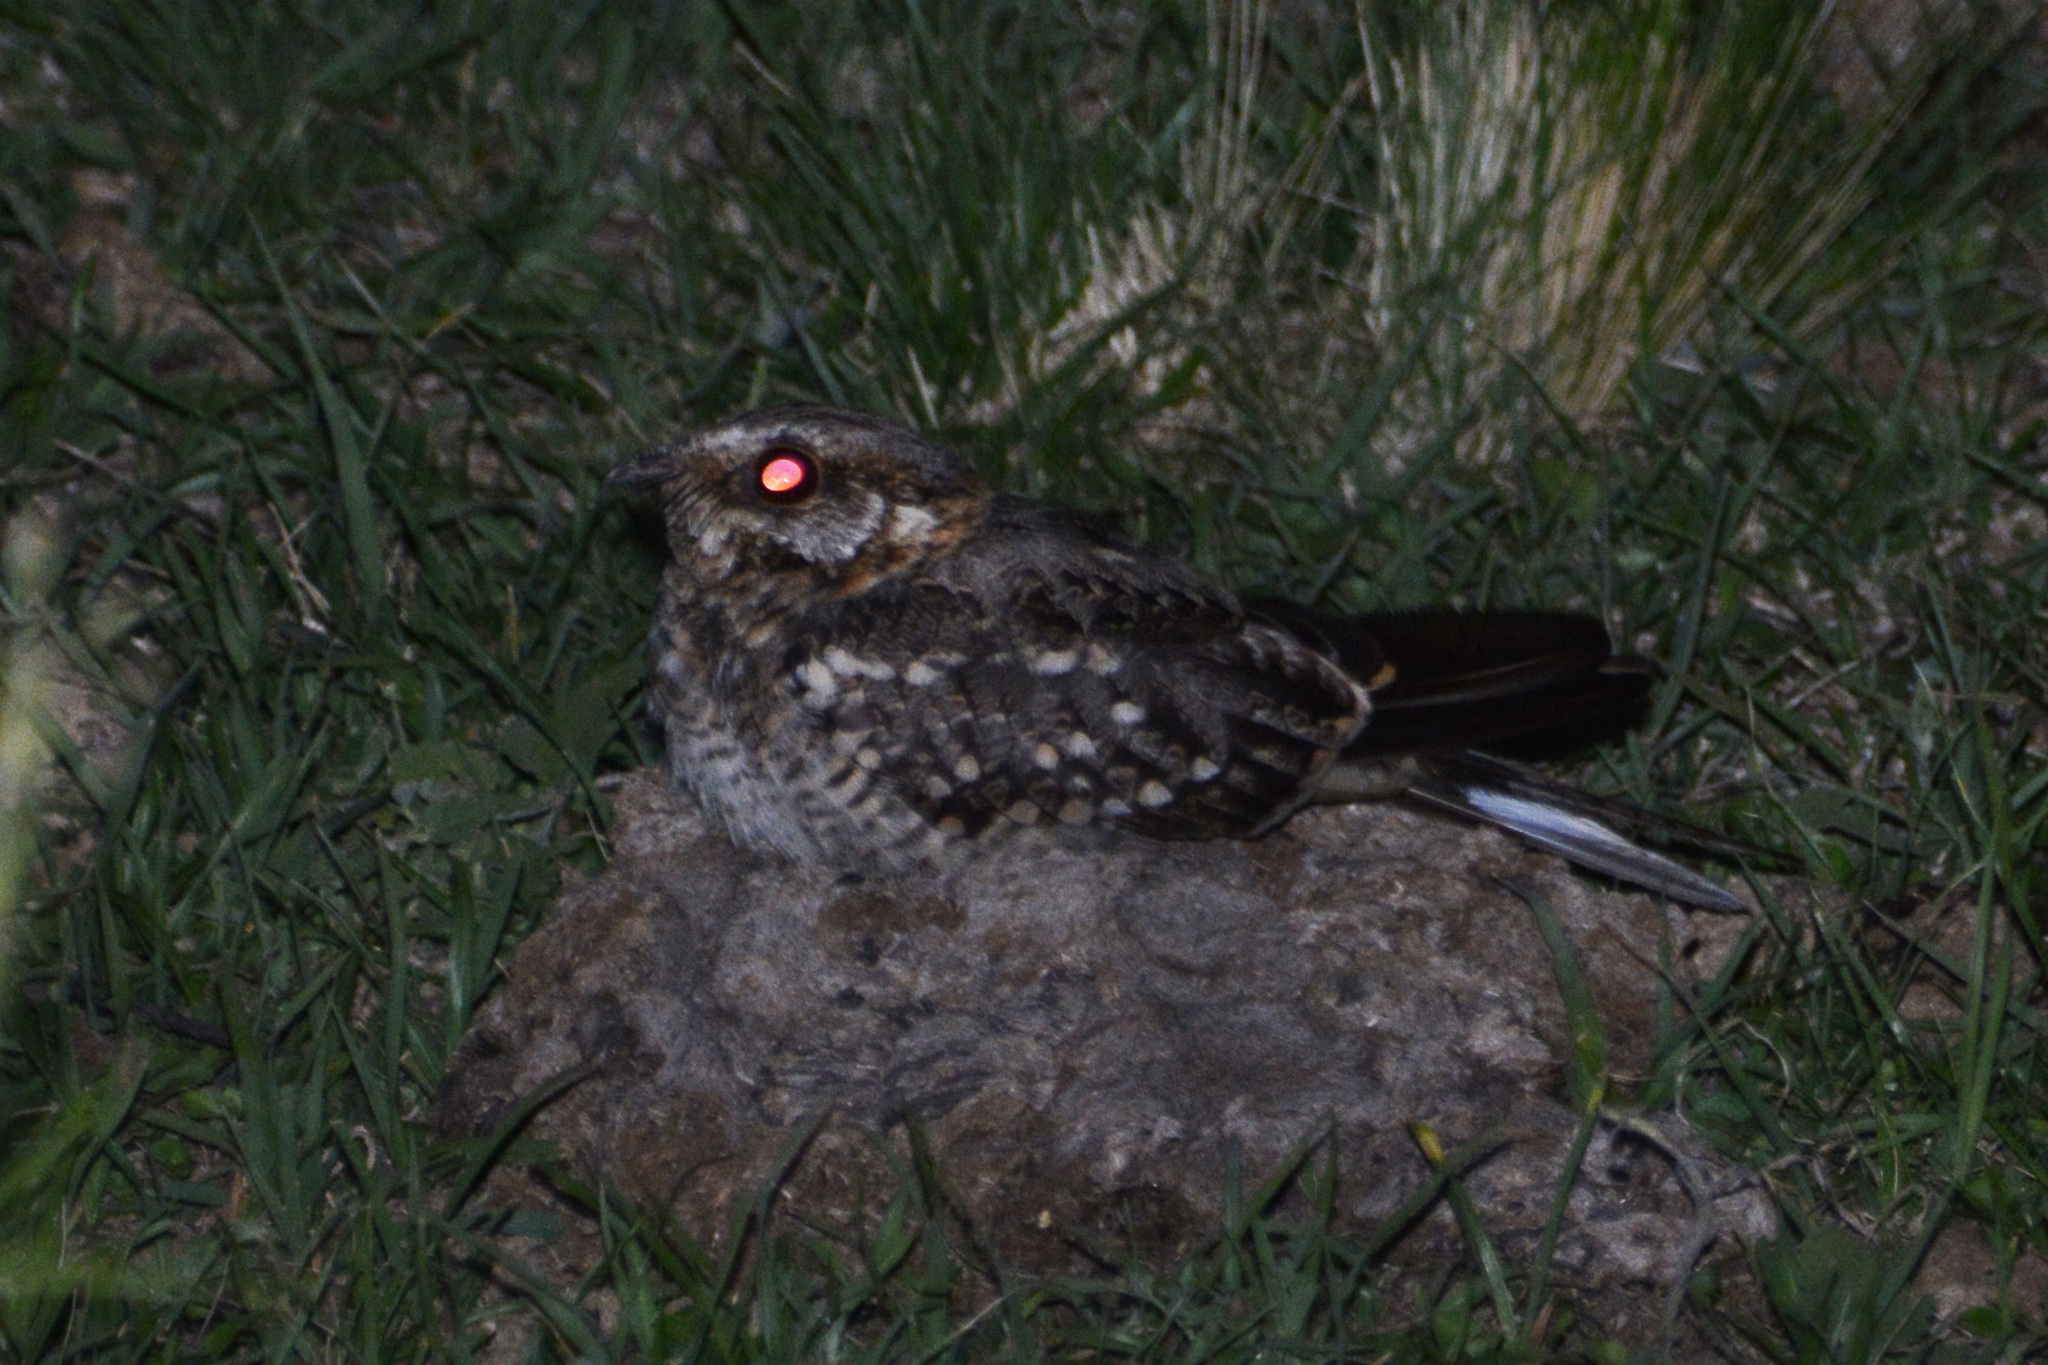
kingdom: Animalia
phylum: Chordata
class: Aves
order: Caprimulgiformes
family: Caprimulgidae
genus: Hydropsalis
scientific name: Hydropsalis torquata
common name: Scissor-tailed nightjar
